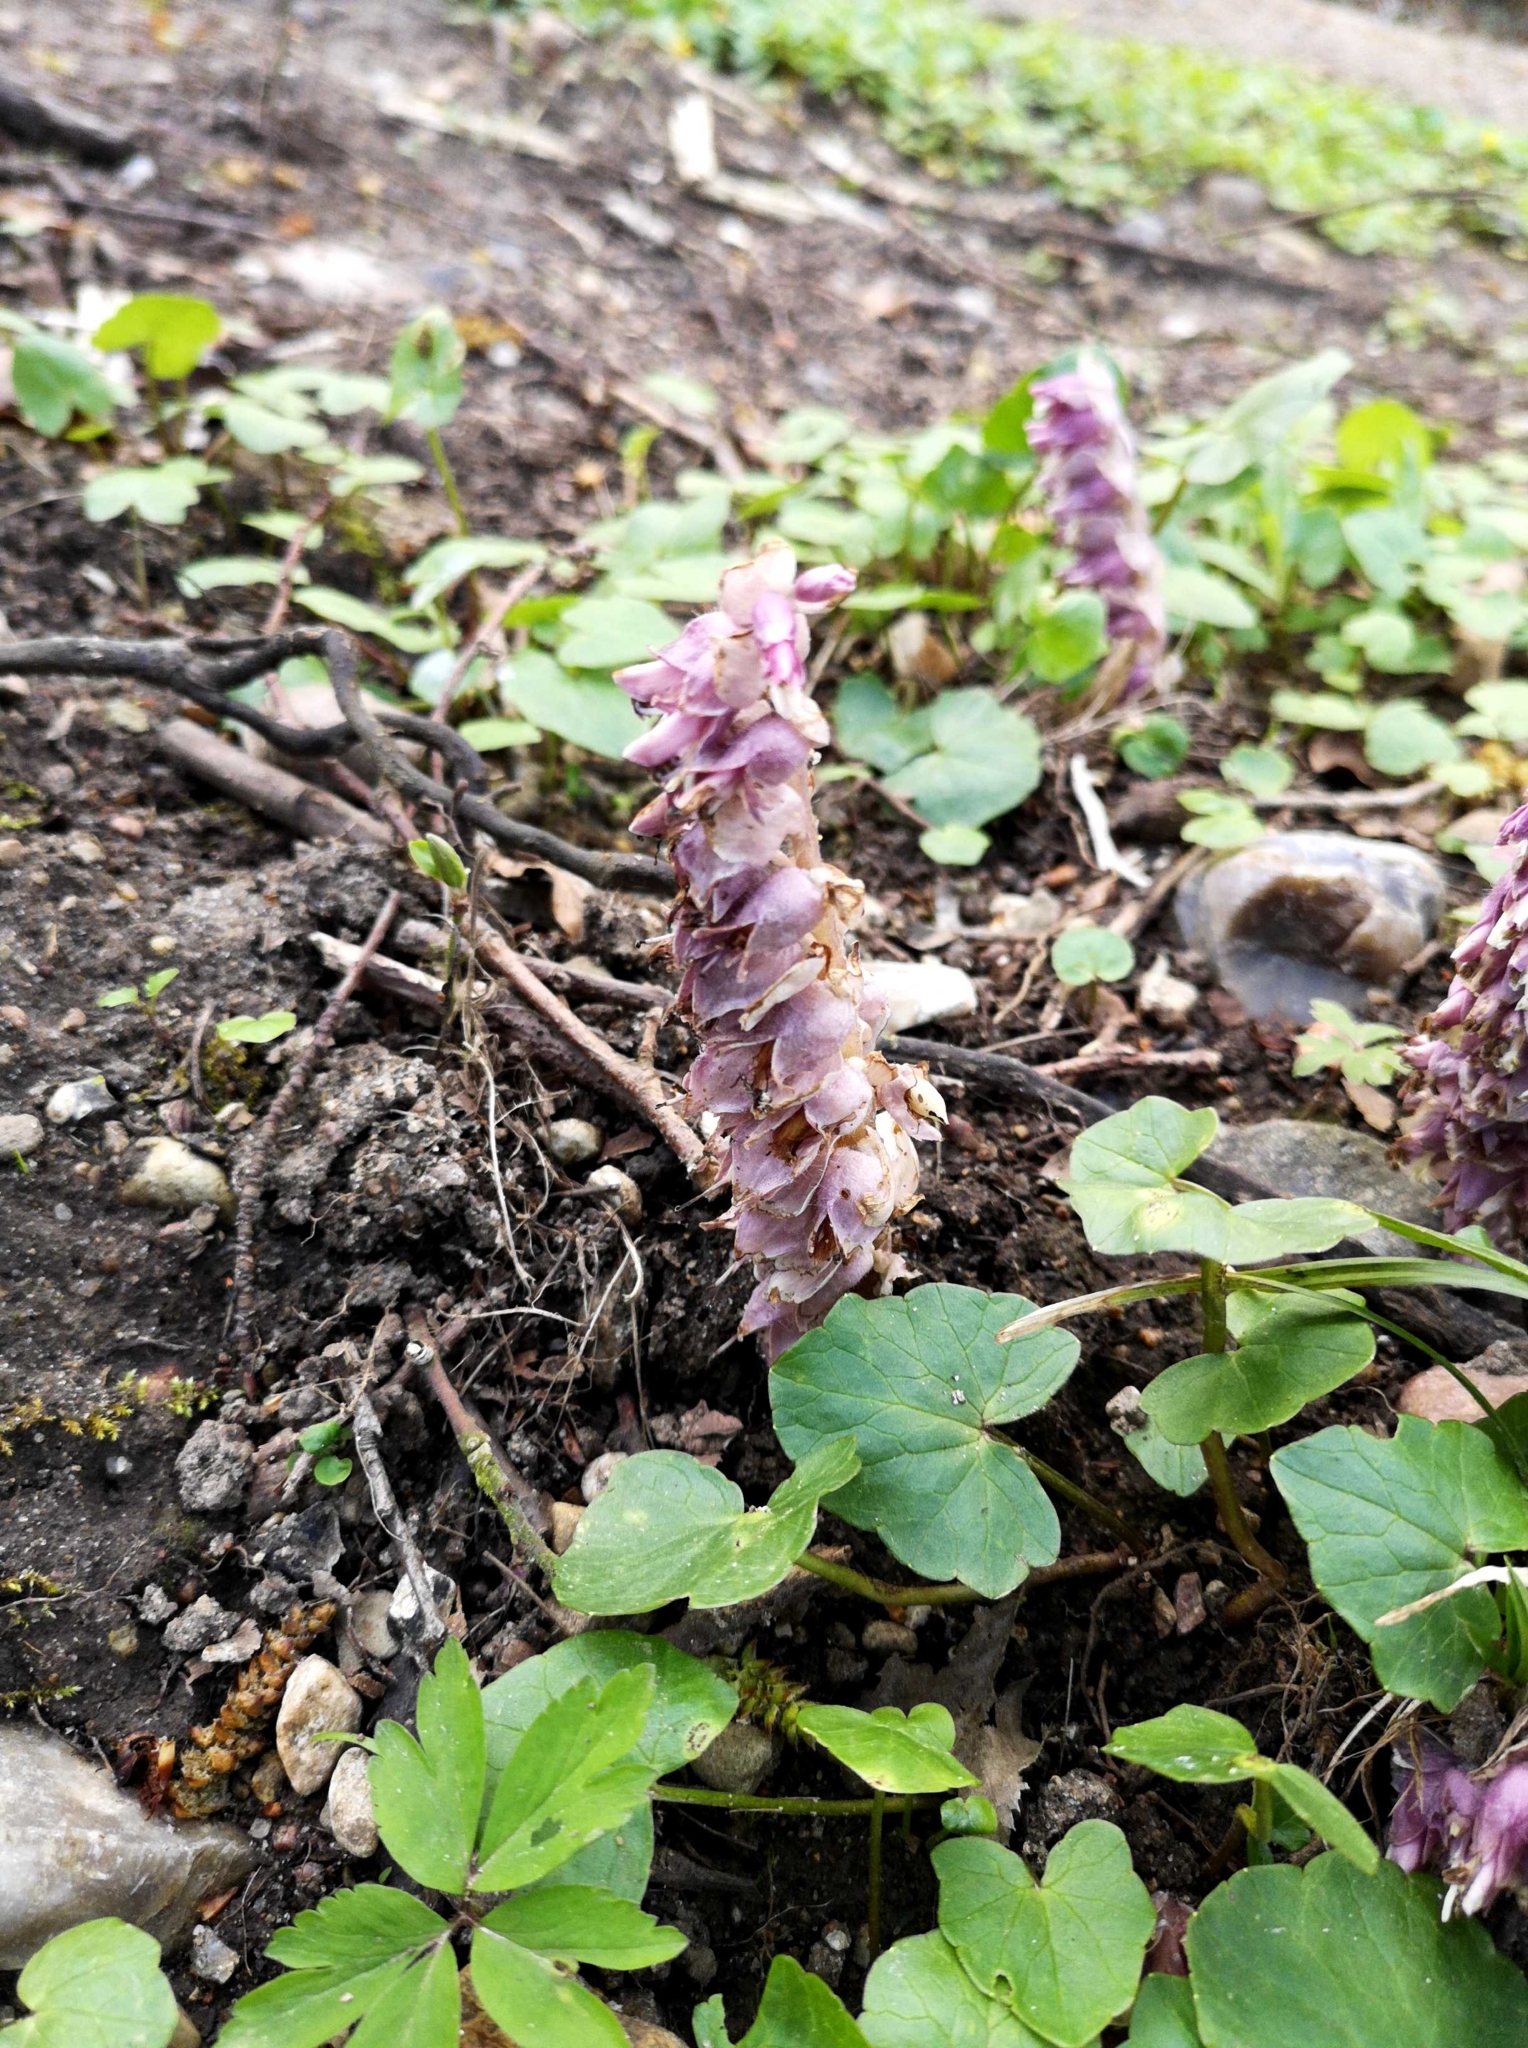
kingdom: Plantae
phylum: Tracheophyta
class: Magnoliopsida
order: Lamiales
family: Orobanchaceae
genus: Lathraea
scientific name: Lathraea squamaria
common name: Toothwort
